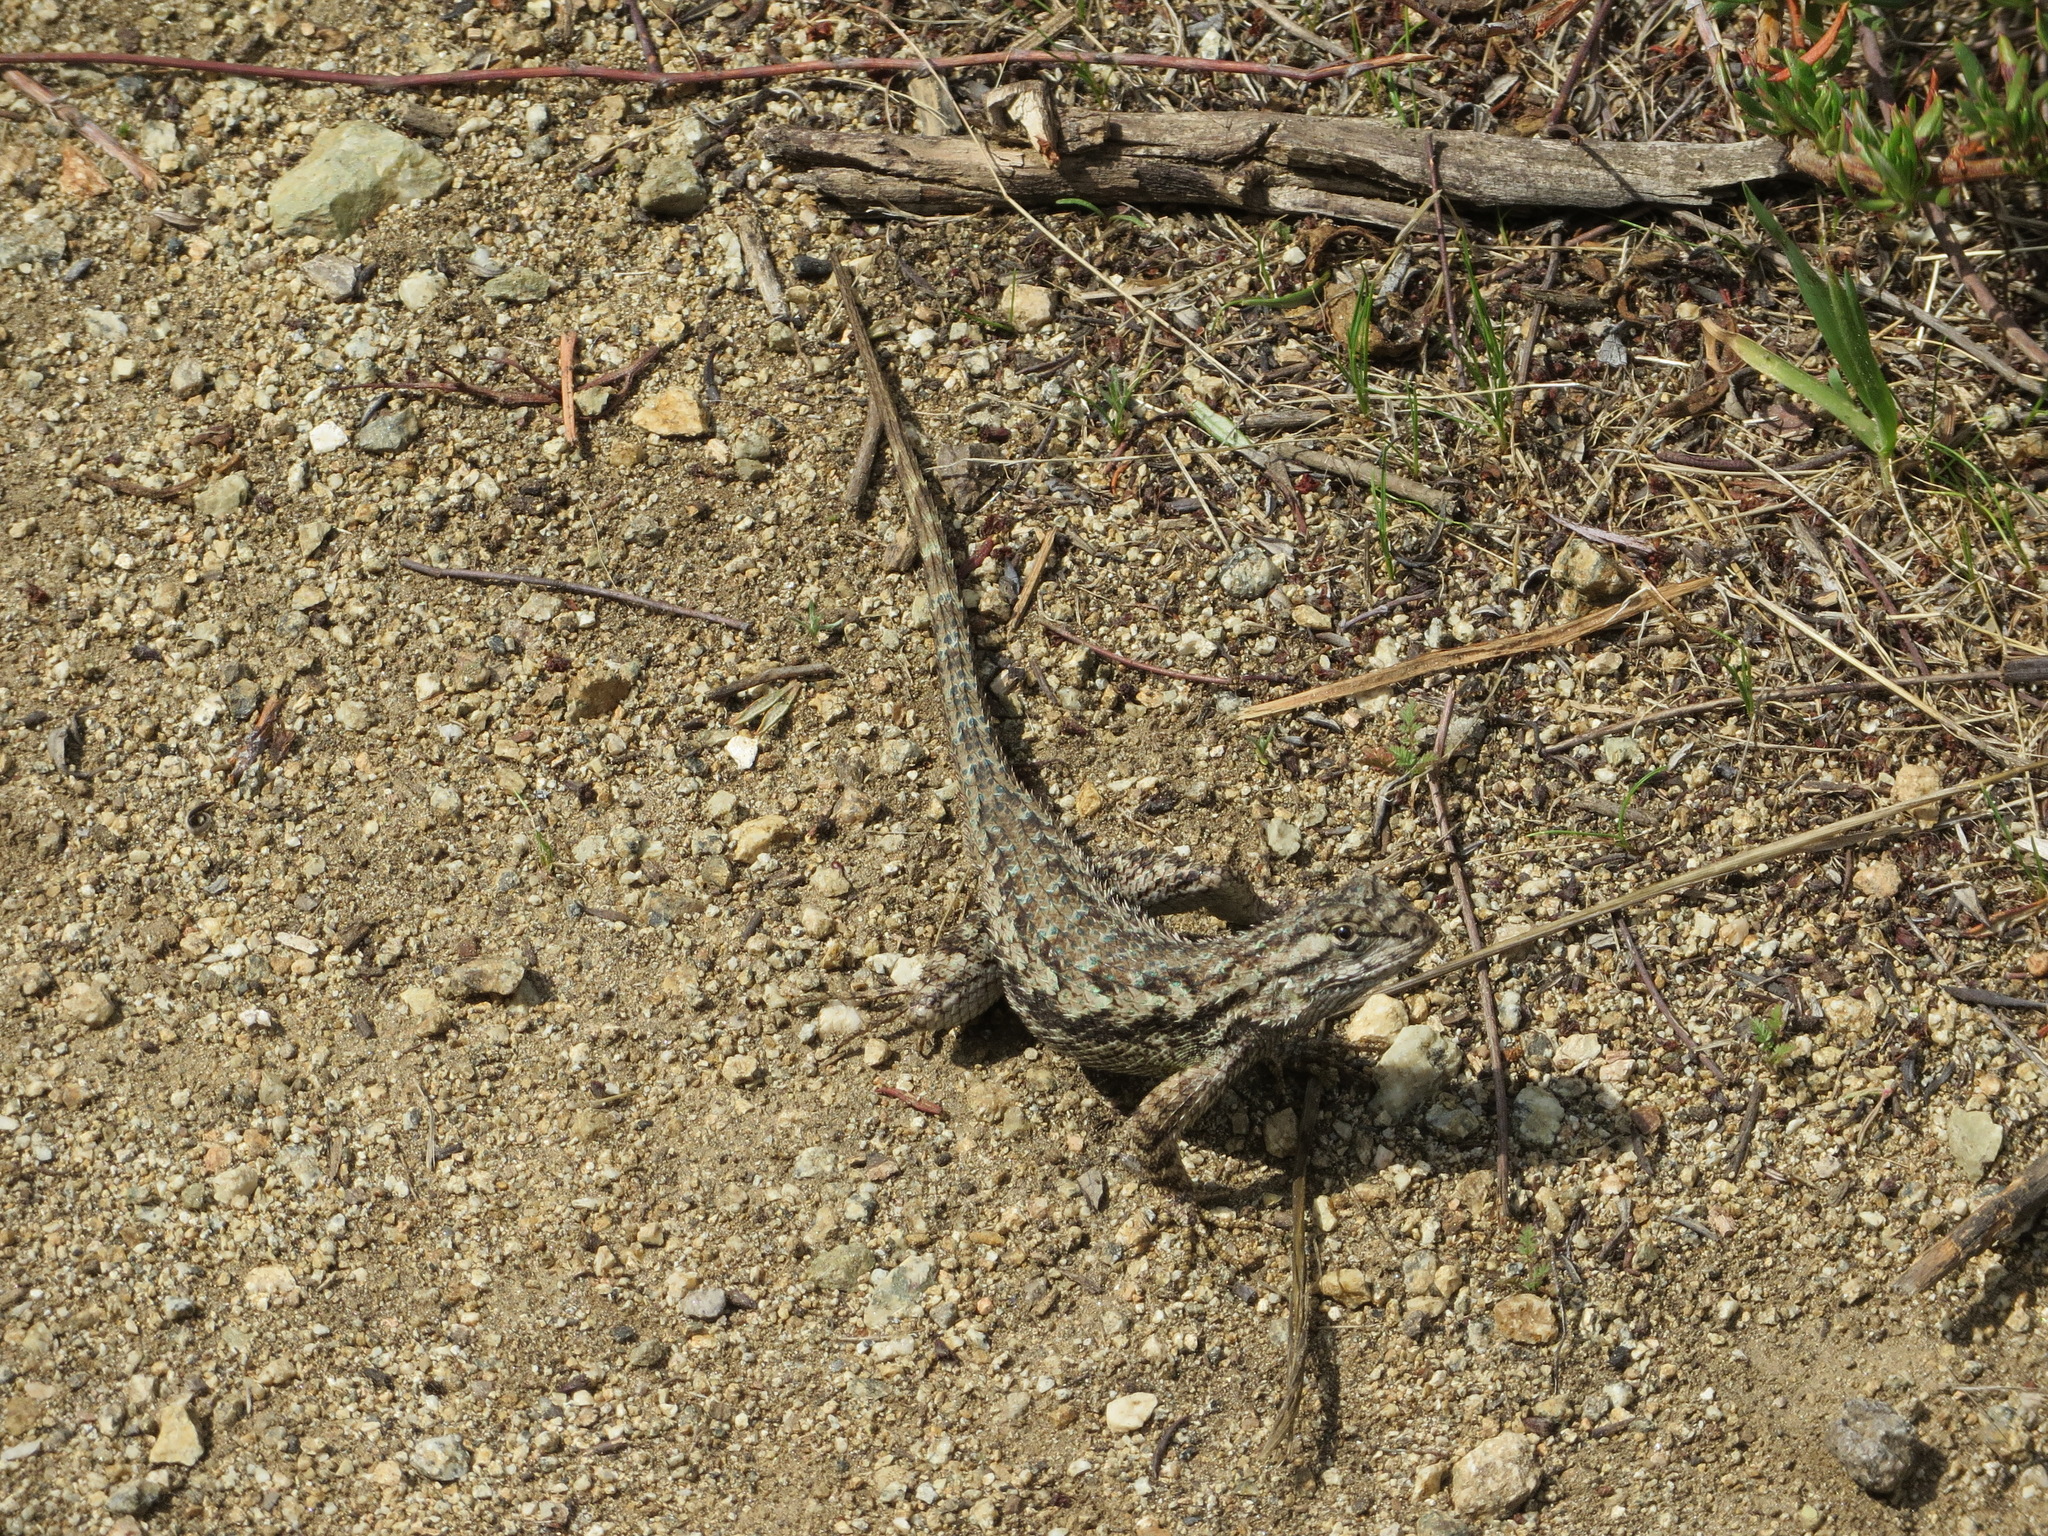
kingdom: Animalia
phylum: Chordata
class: Squamata
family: Phrynosomatidae
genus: Sceloporus
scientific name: Sceloporus occidentalis
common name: Western fence lizard
